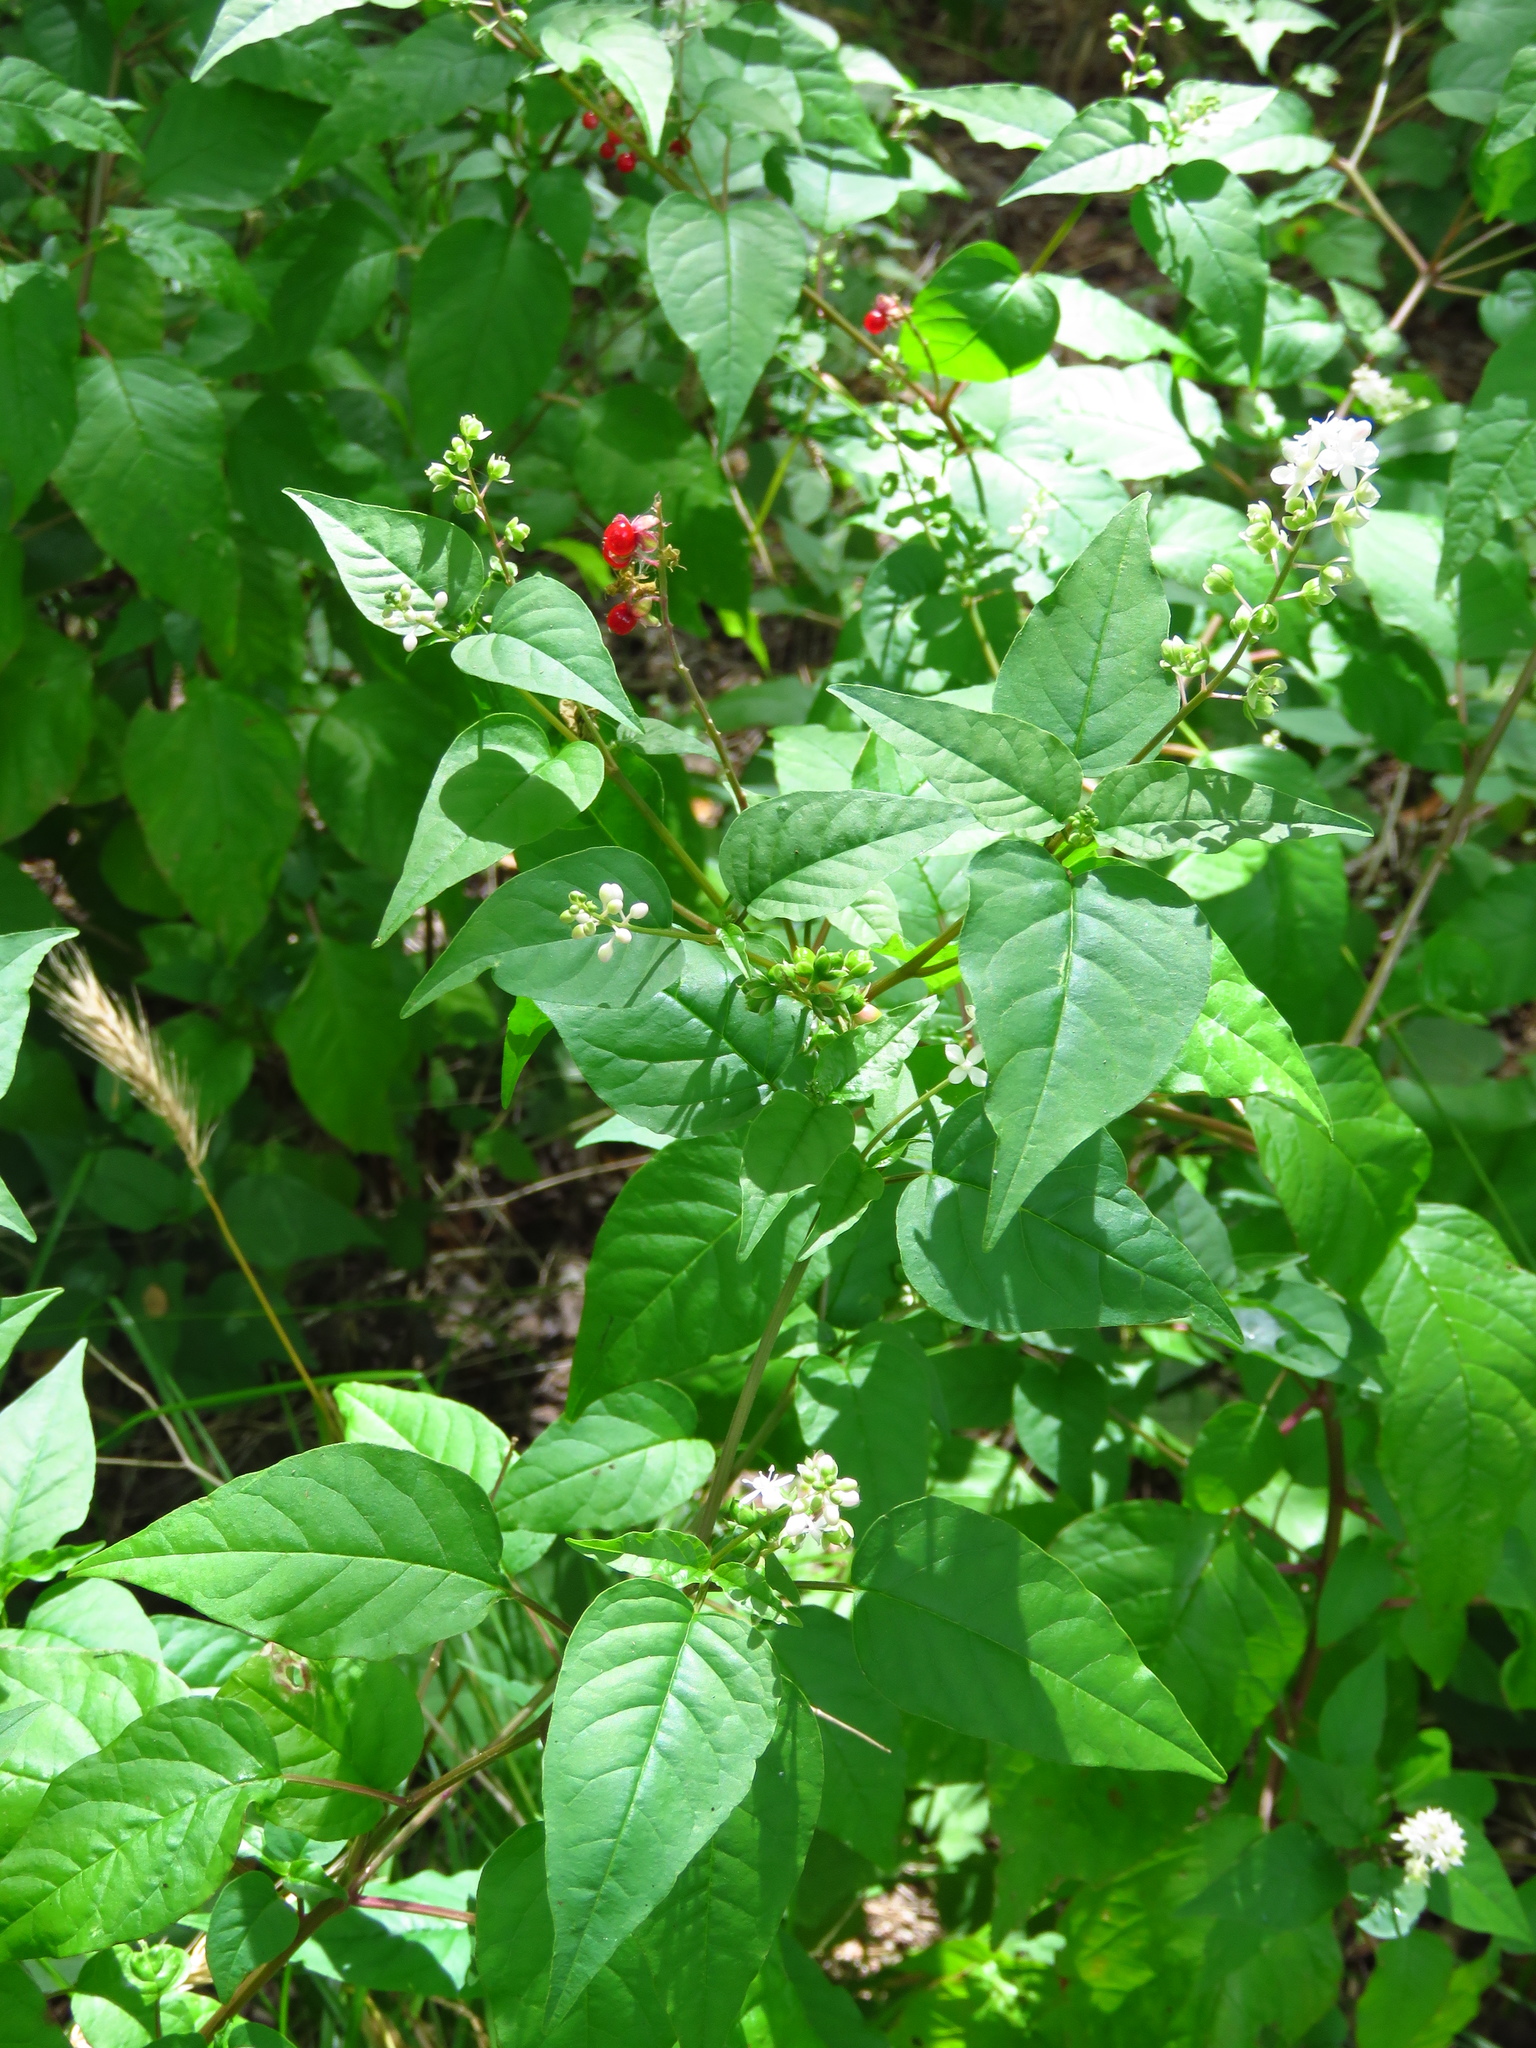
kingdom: Plantae
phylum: Tracheophyta
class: Magnoliopsida
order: Caryophyllales
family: Phytolaccaceae
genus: Rivina
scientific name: Rivina humilis
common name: Rougeplant
